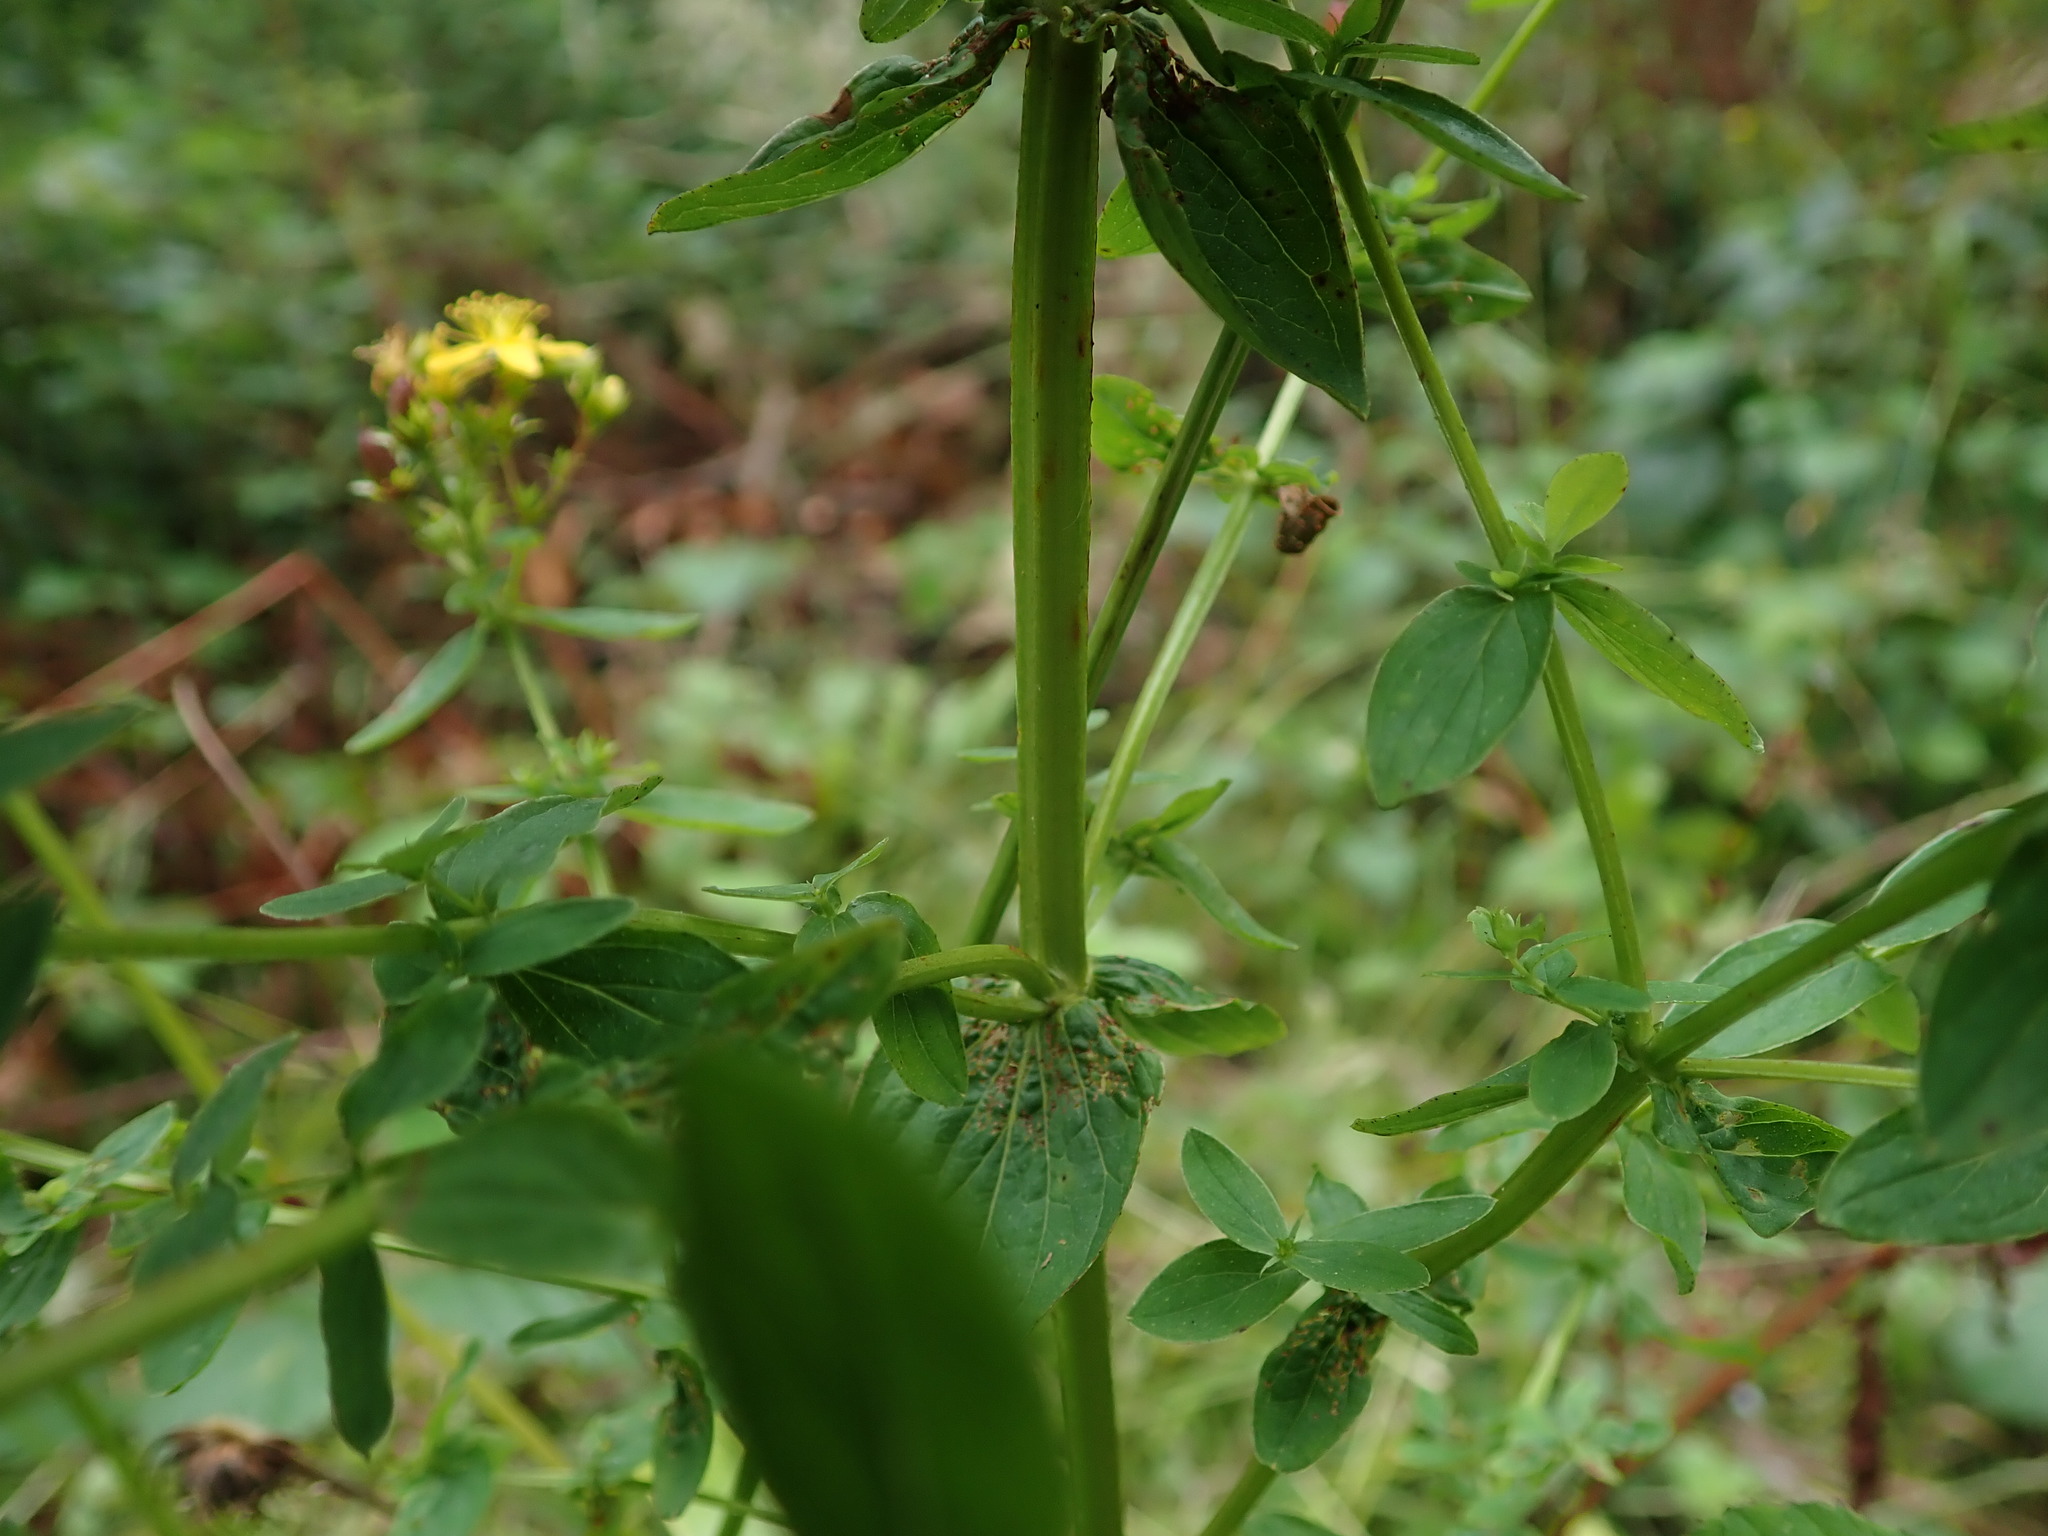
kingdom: Plantae
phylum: Tracheophyta
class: Magnoliopsida
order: Malpighiales
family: Hypericaceae
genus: Hypericum
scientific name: Hypericum tetrapterum
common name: Square-stalked st. john's-wort
